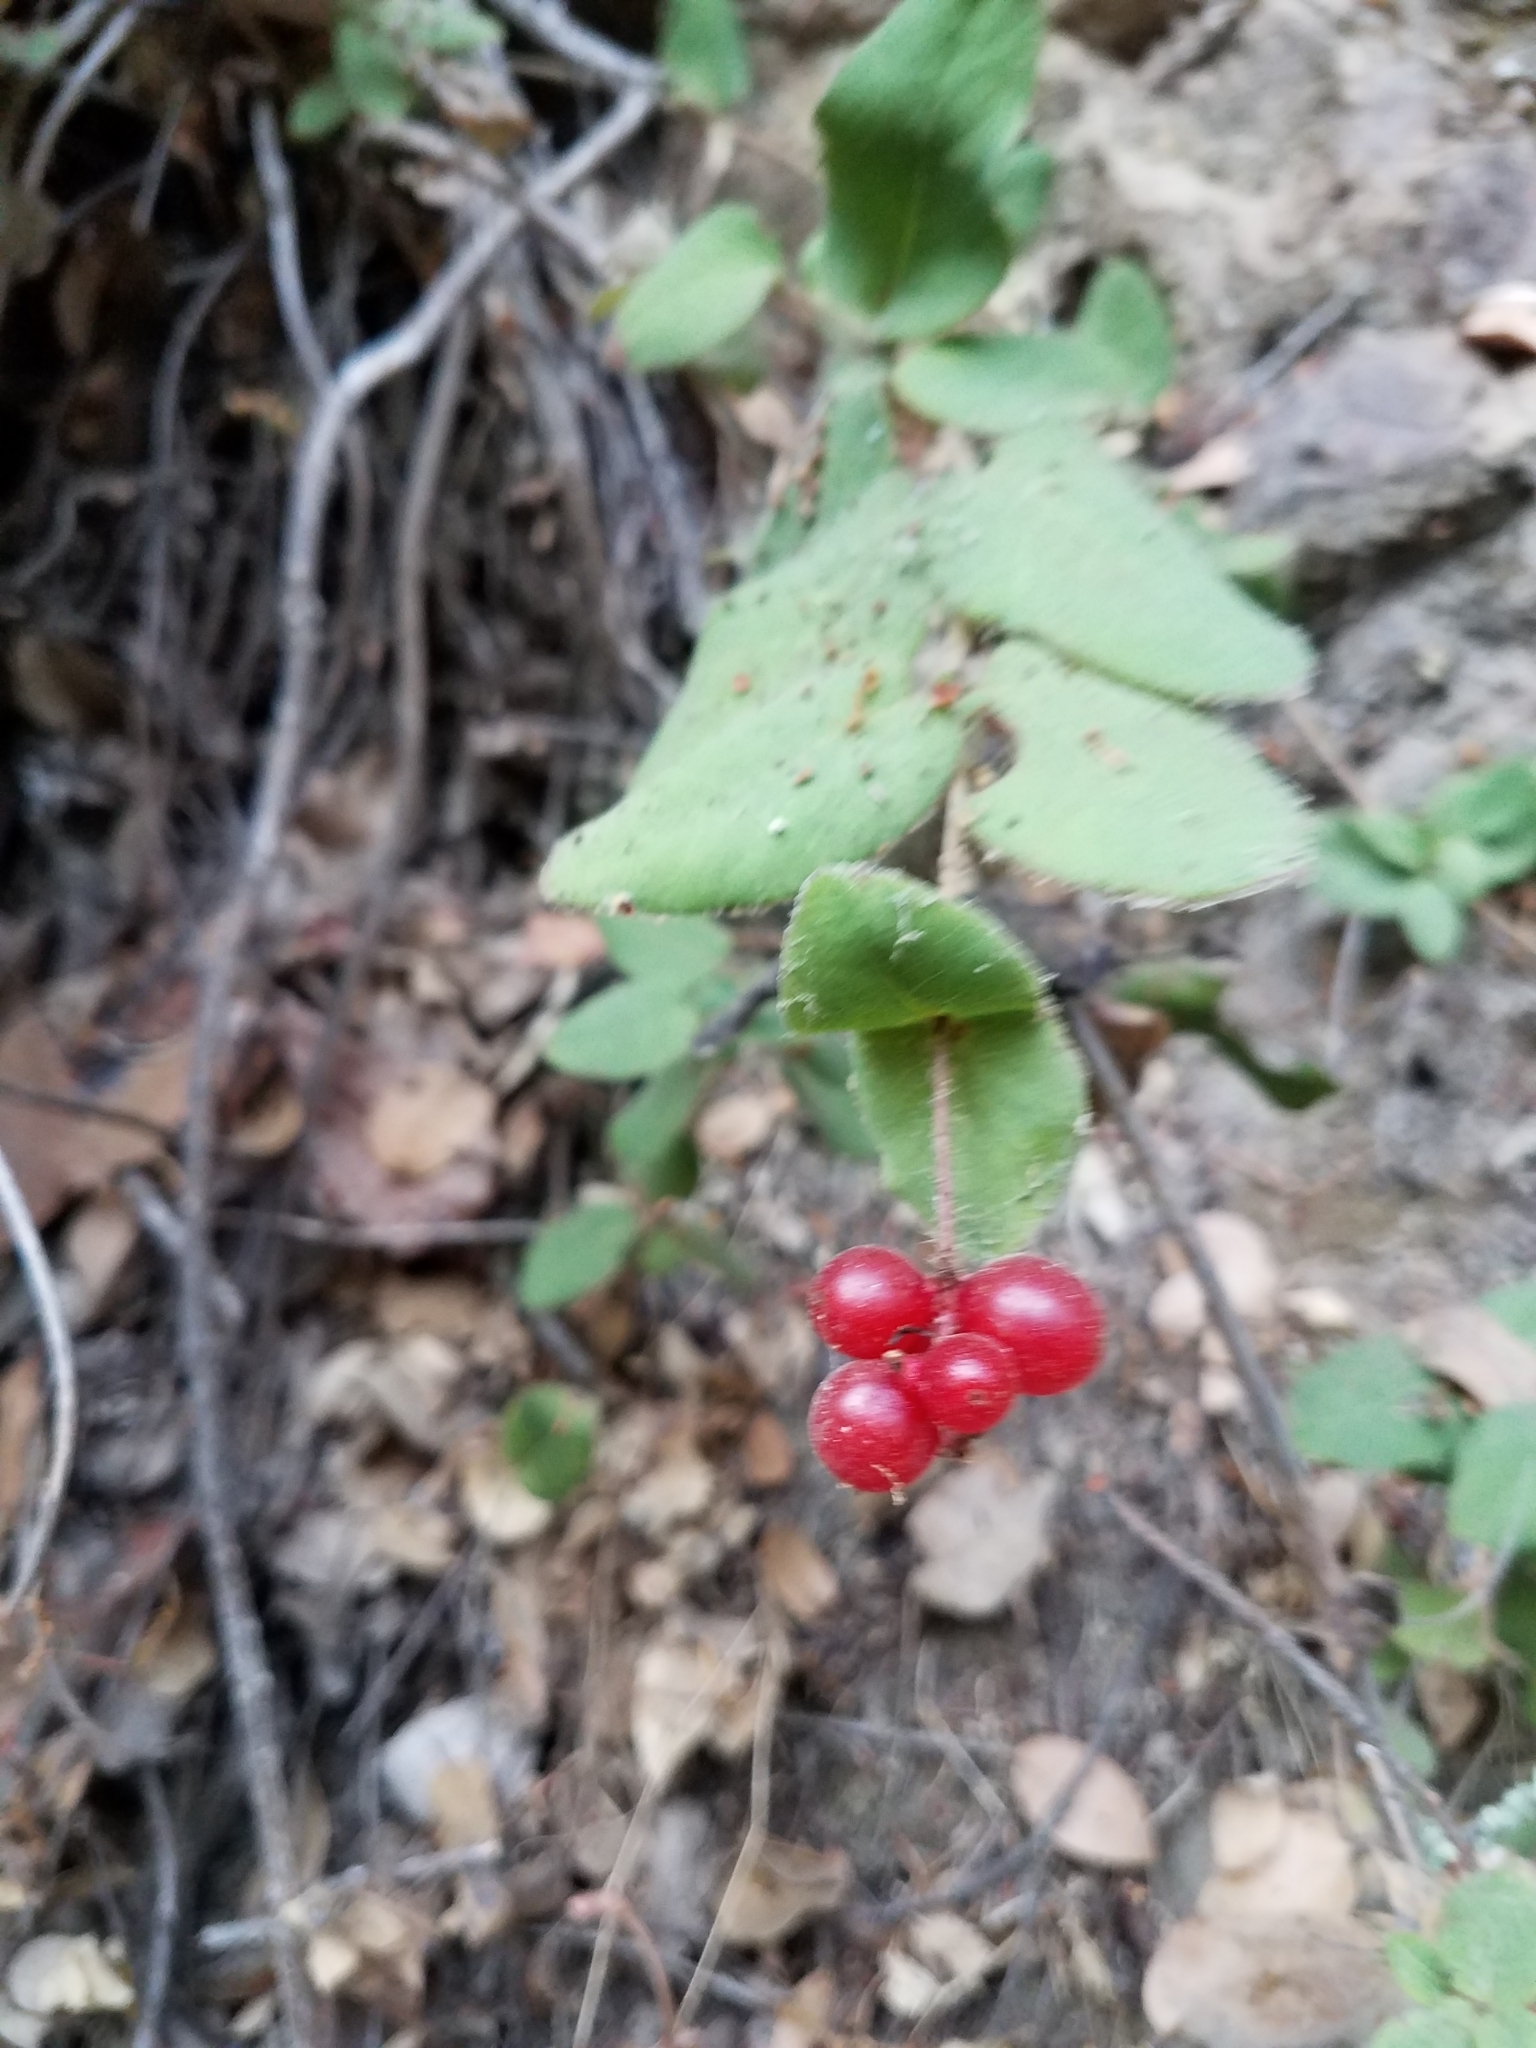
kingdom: Plantae
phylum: Tracheophyta
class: Magnoliopsida
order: Dipsacales
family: Caprifoliaceae
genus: Lonicera
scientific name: Lonicera hispidula
